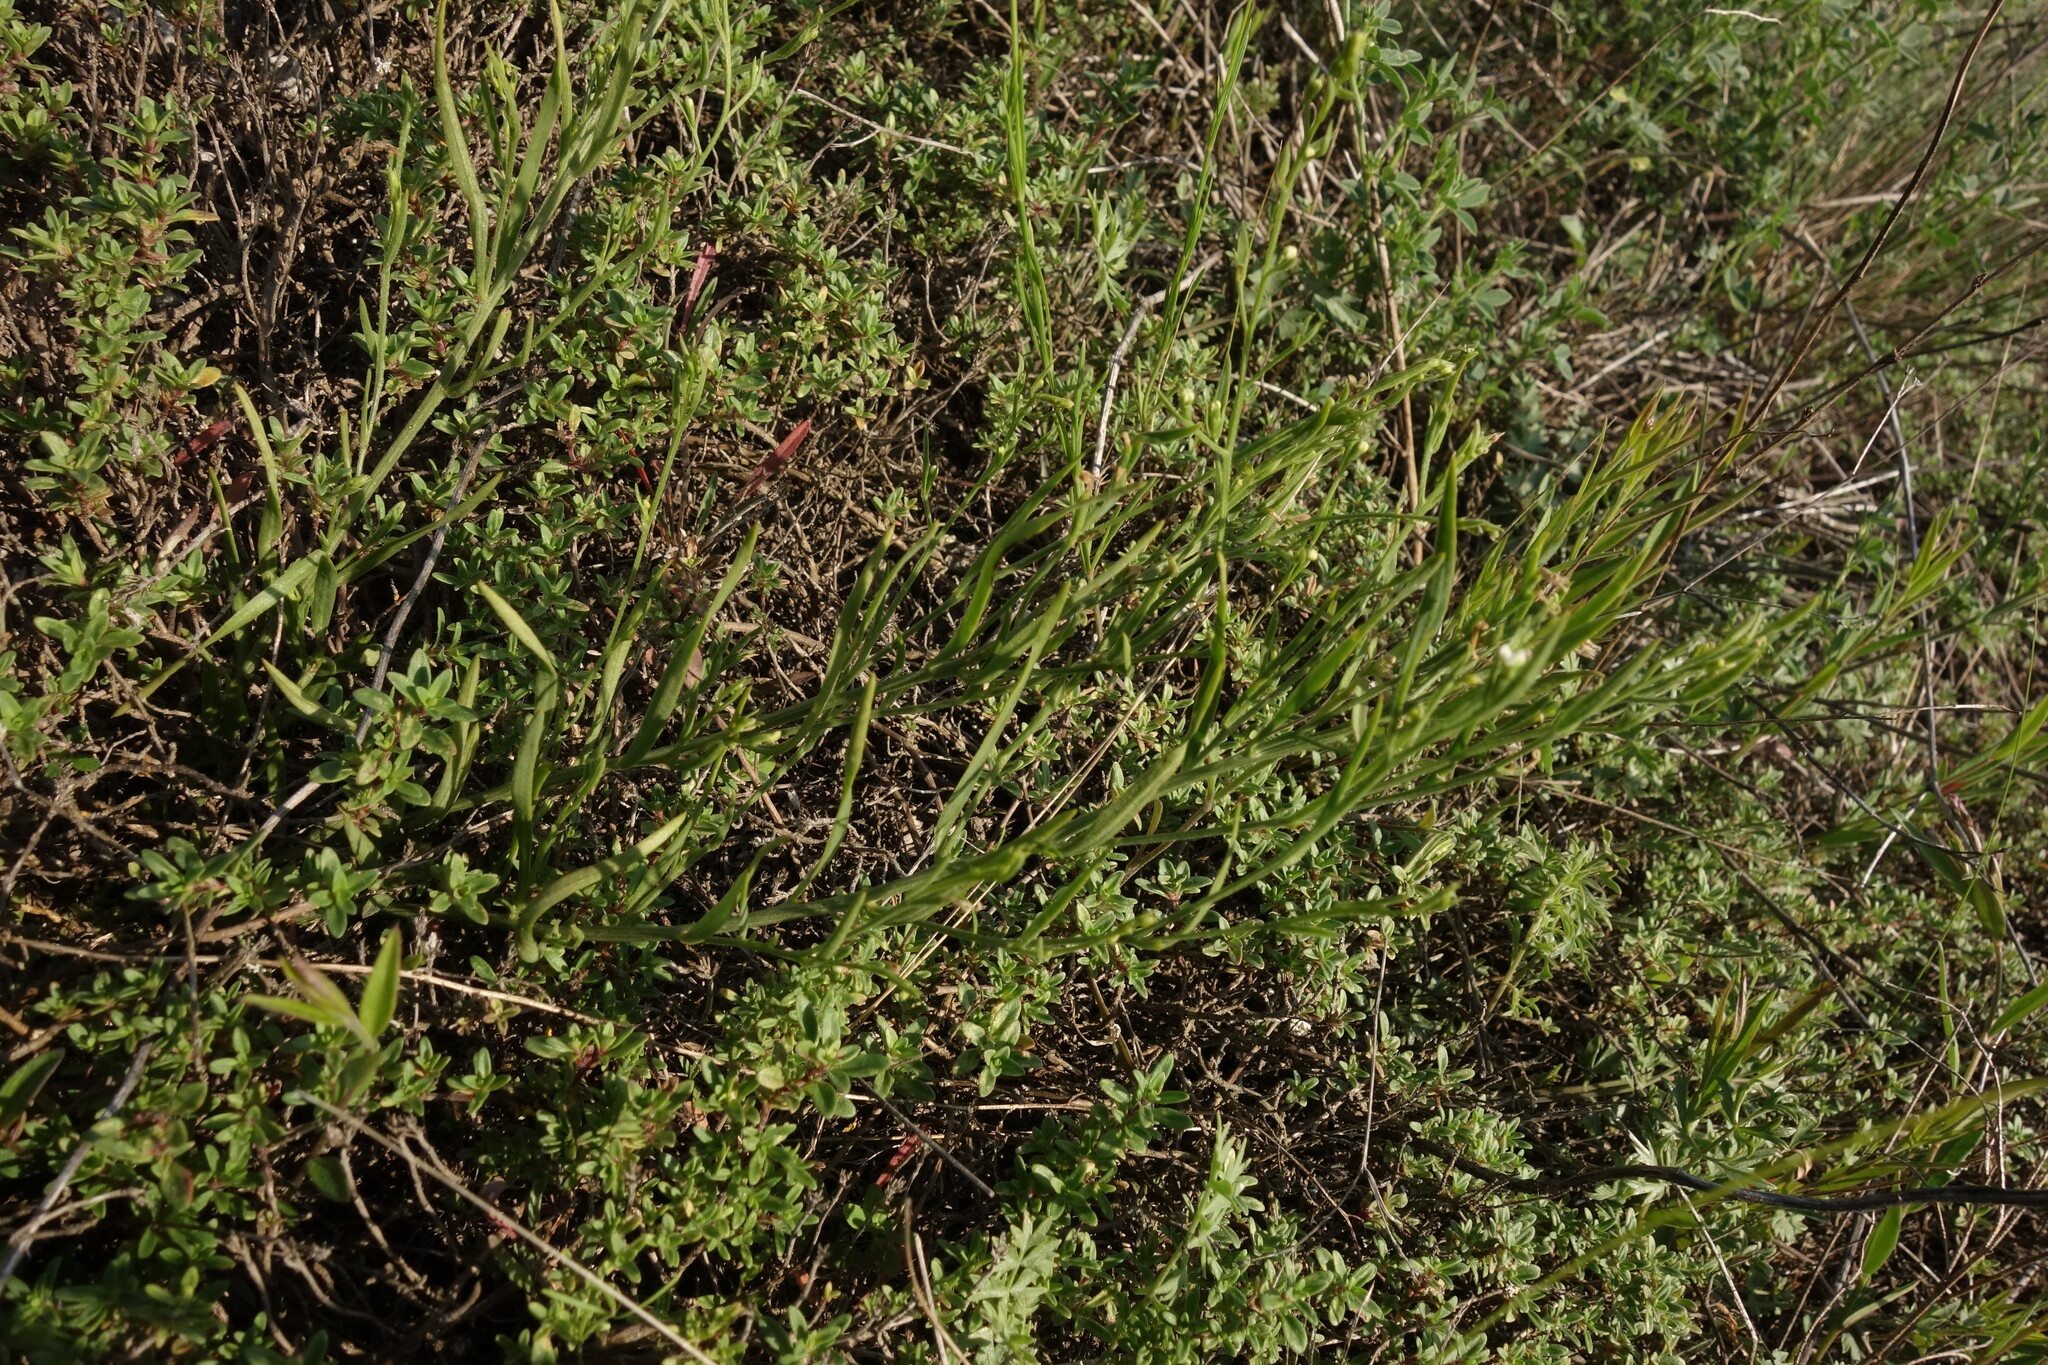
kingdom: Plantae
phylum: Tracheophyta
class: Magnoliopsida
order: Santalales
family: Thesiaceae
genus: Thesium
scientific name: Thesium ramosum
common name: Field thesium
